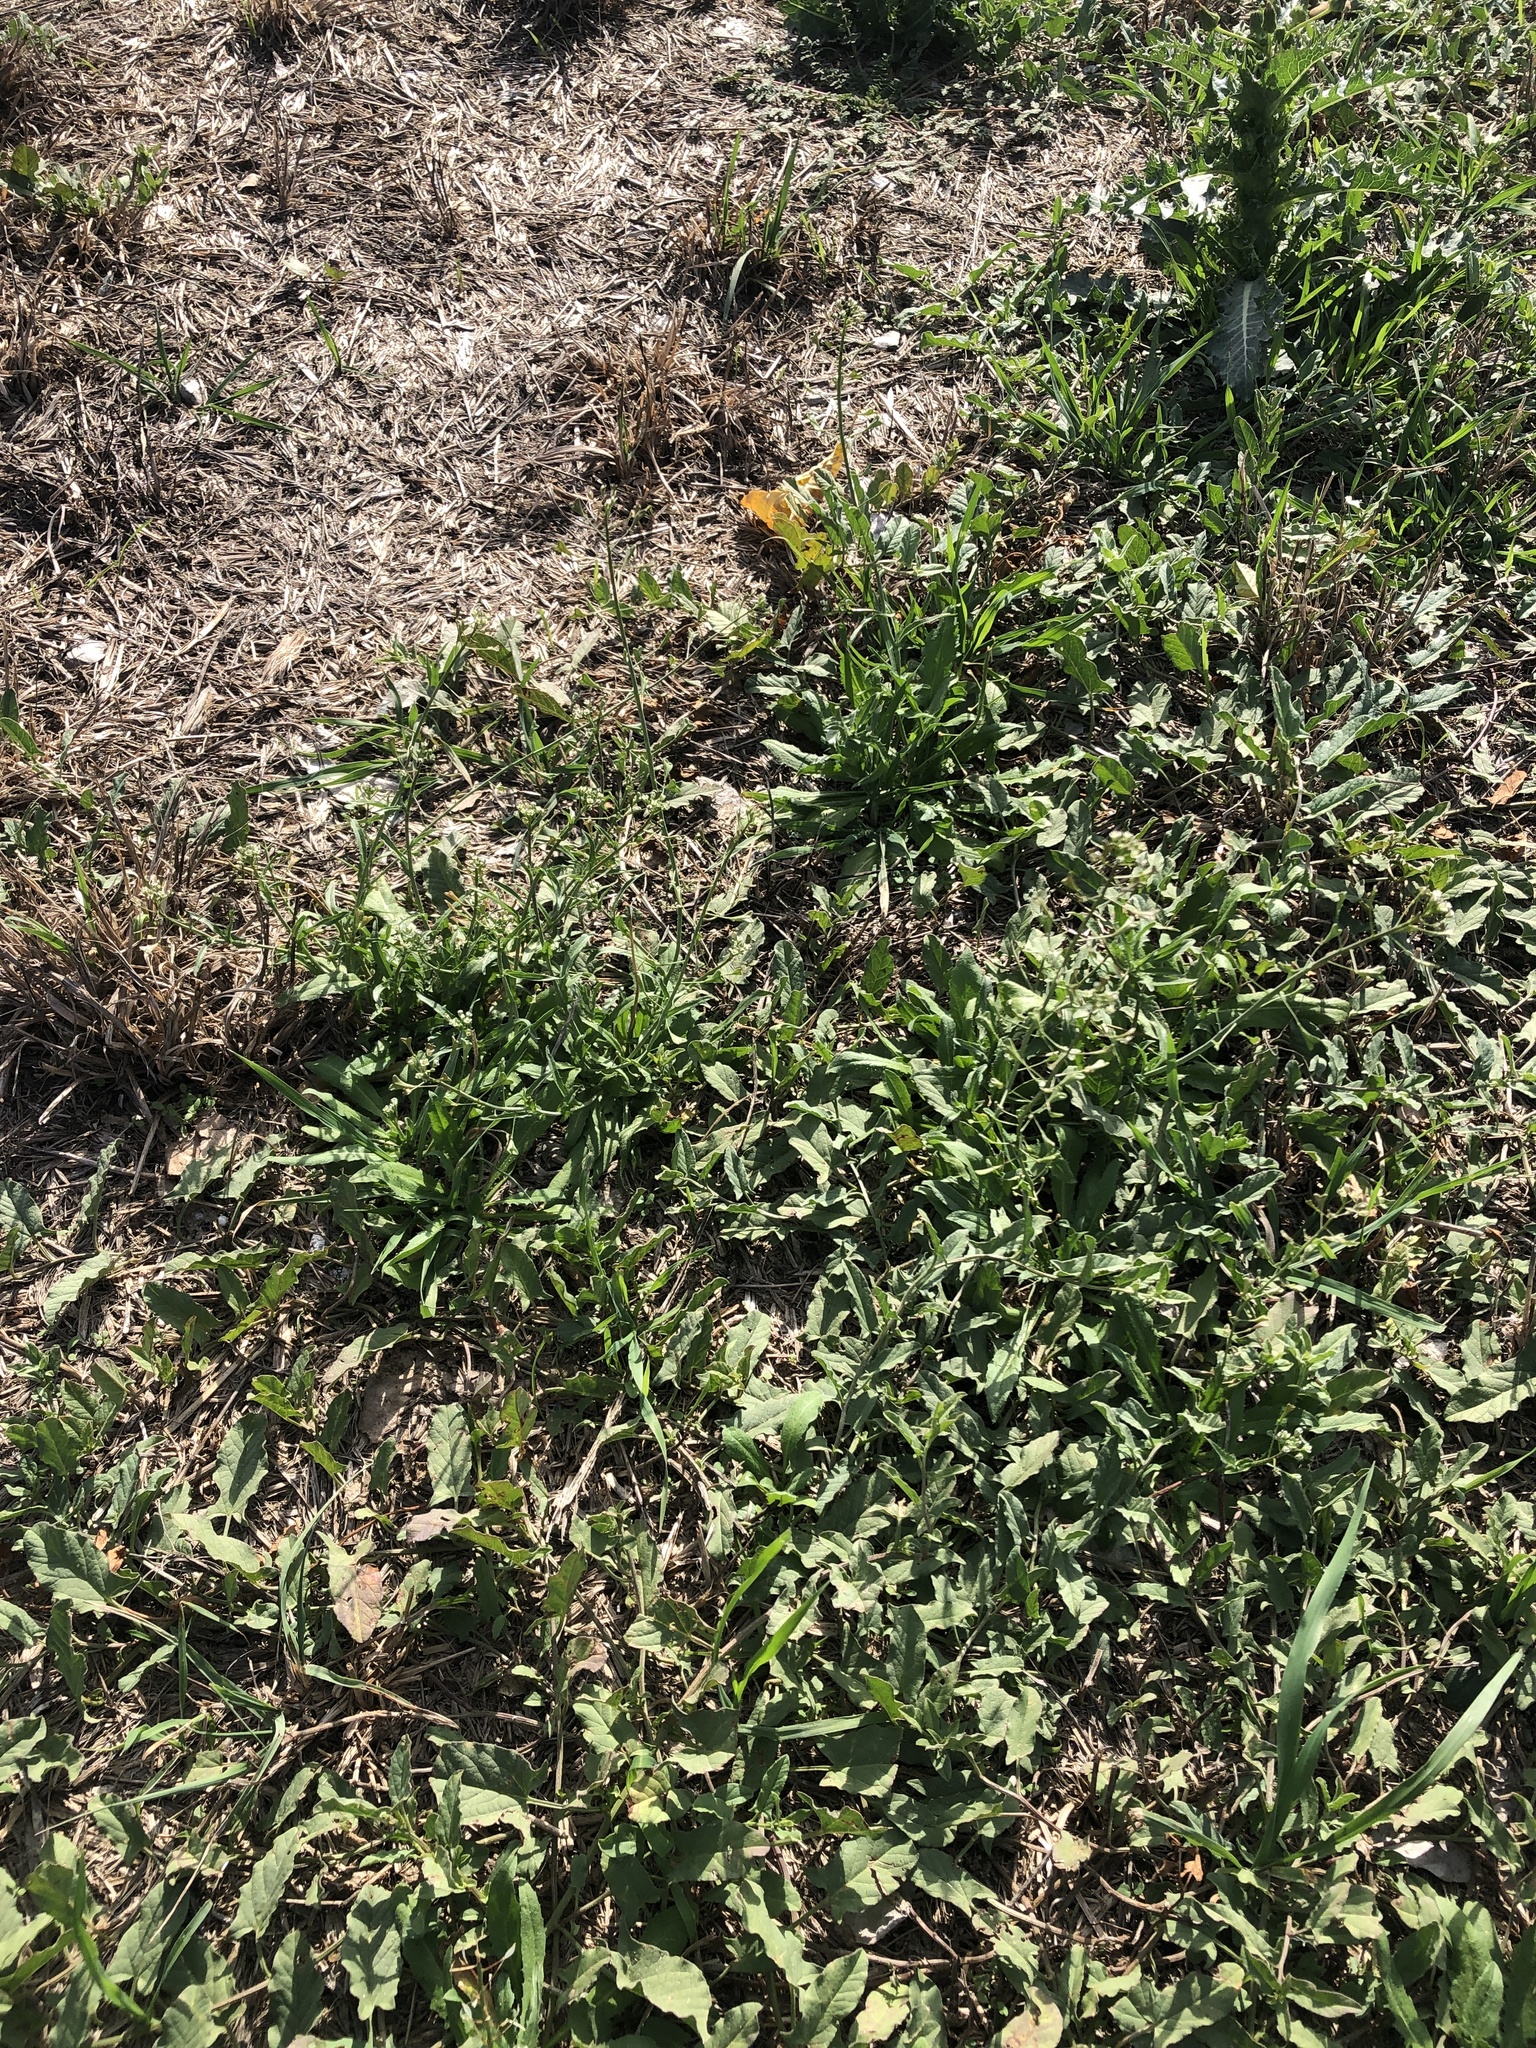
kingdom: Plantae
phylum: Tracheophyta
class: Magnoliopsida
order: Brassicales
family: Brassicaceae
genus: Capsella
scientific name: Capsella bursa-pastoris
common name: Shepherd's purse
